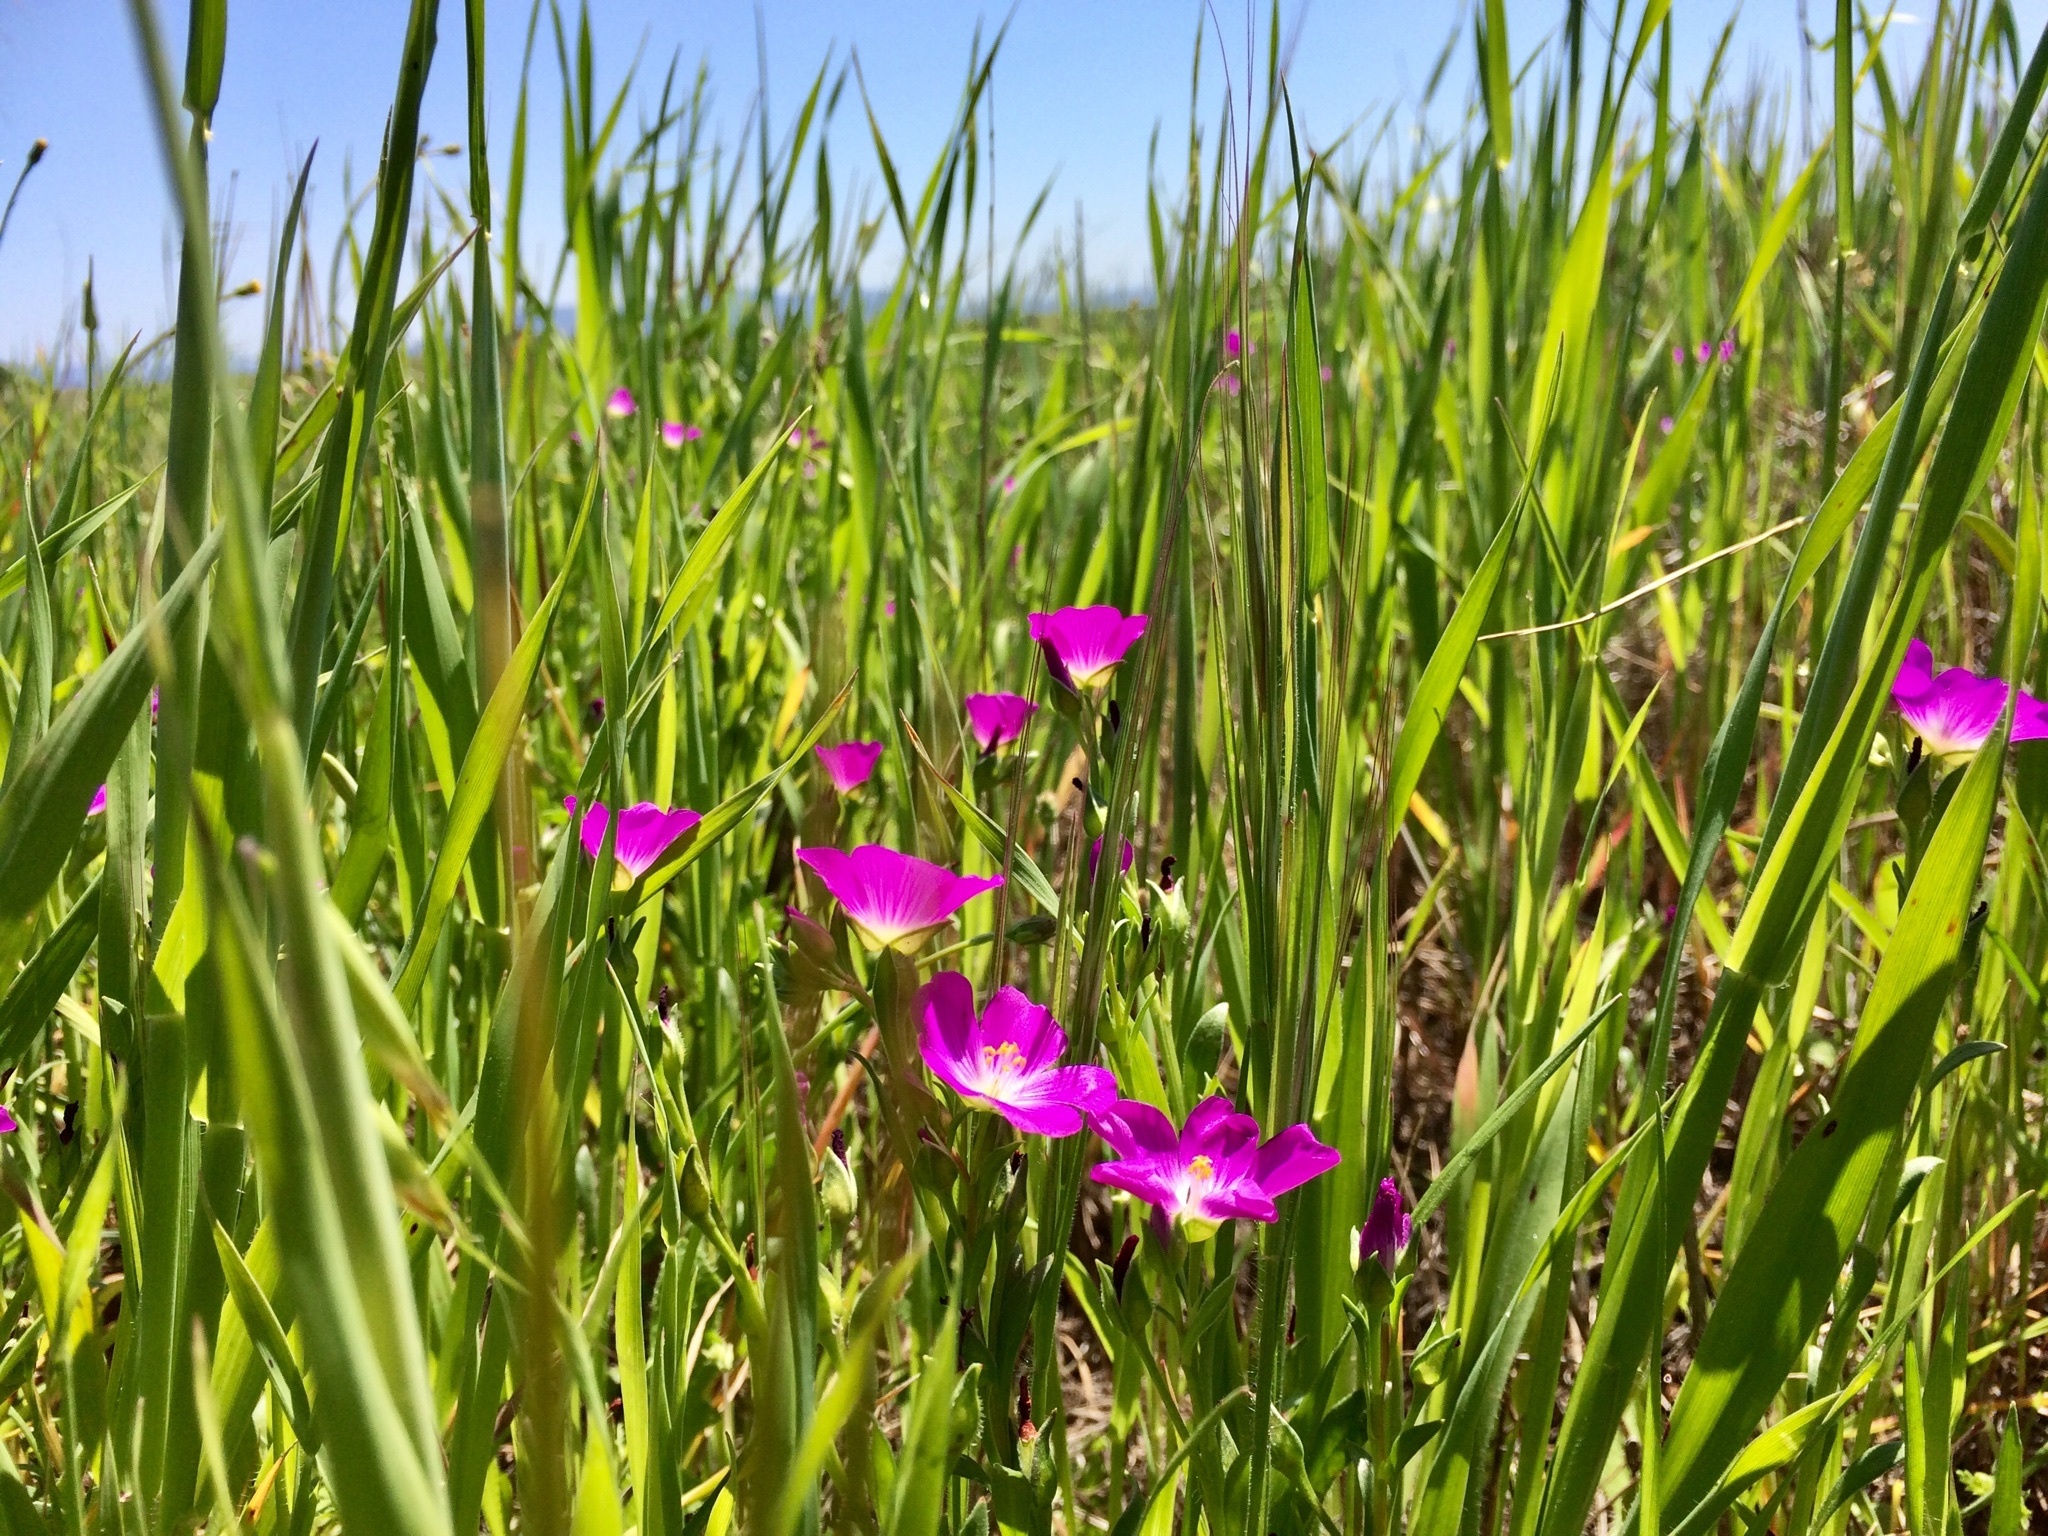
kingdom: Plantae
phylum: Tracheophyta
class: Magnoliopsida
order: Caryophyllales
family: Montiaceae
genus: Calandrinia
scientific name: Calandrinia menziesii
